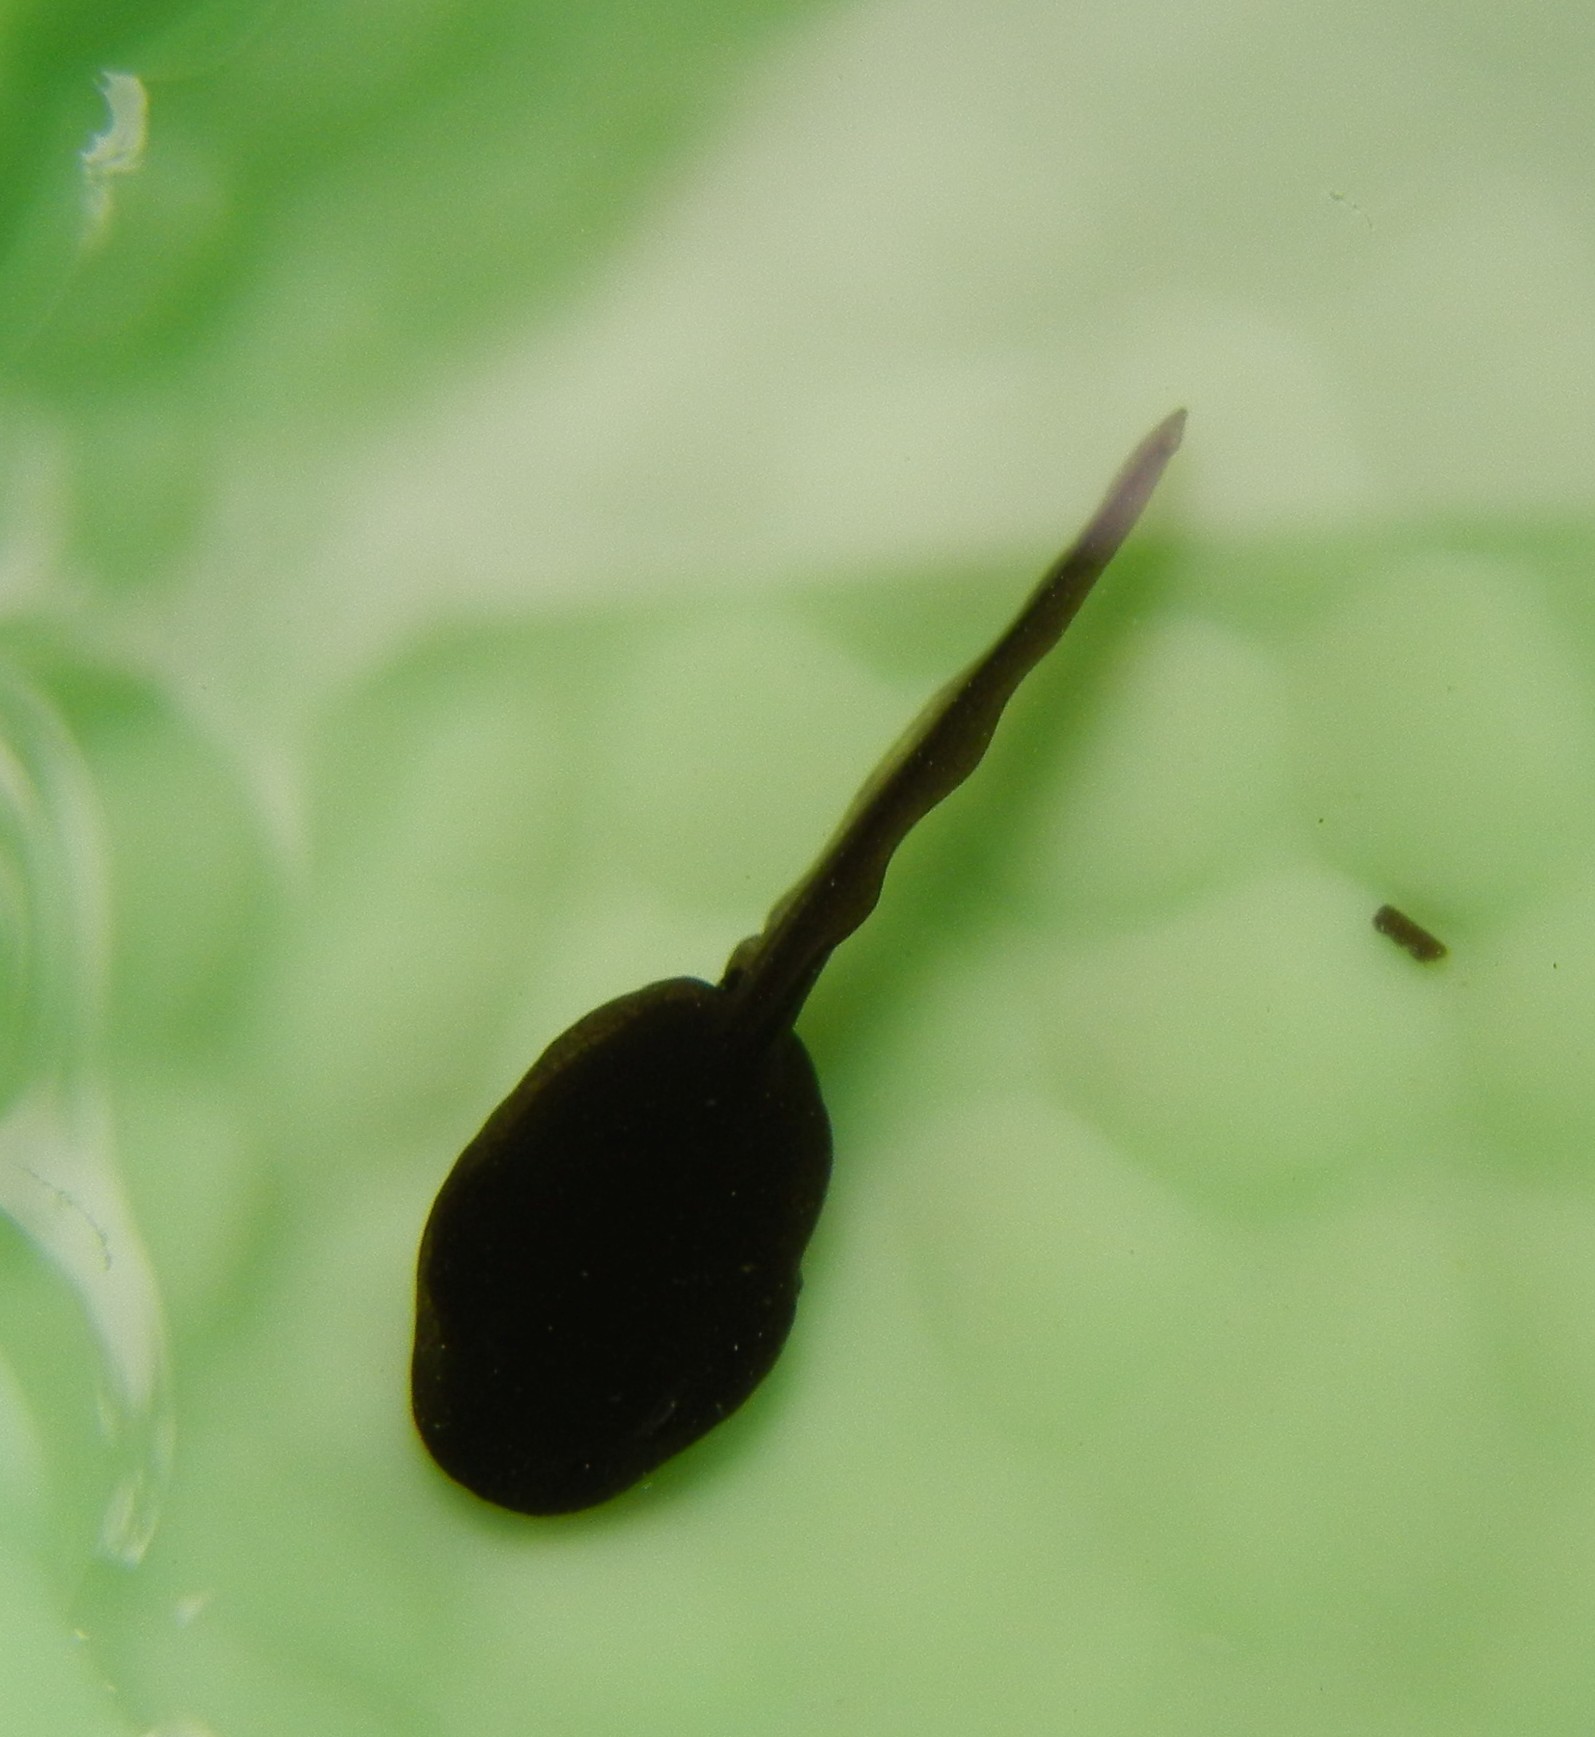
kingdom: Animalia
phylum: Chordata
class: Amphibia
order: Anura
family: Bufonidae
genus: Bufo
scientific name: Bufo bufo
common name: Common toad
